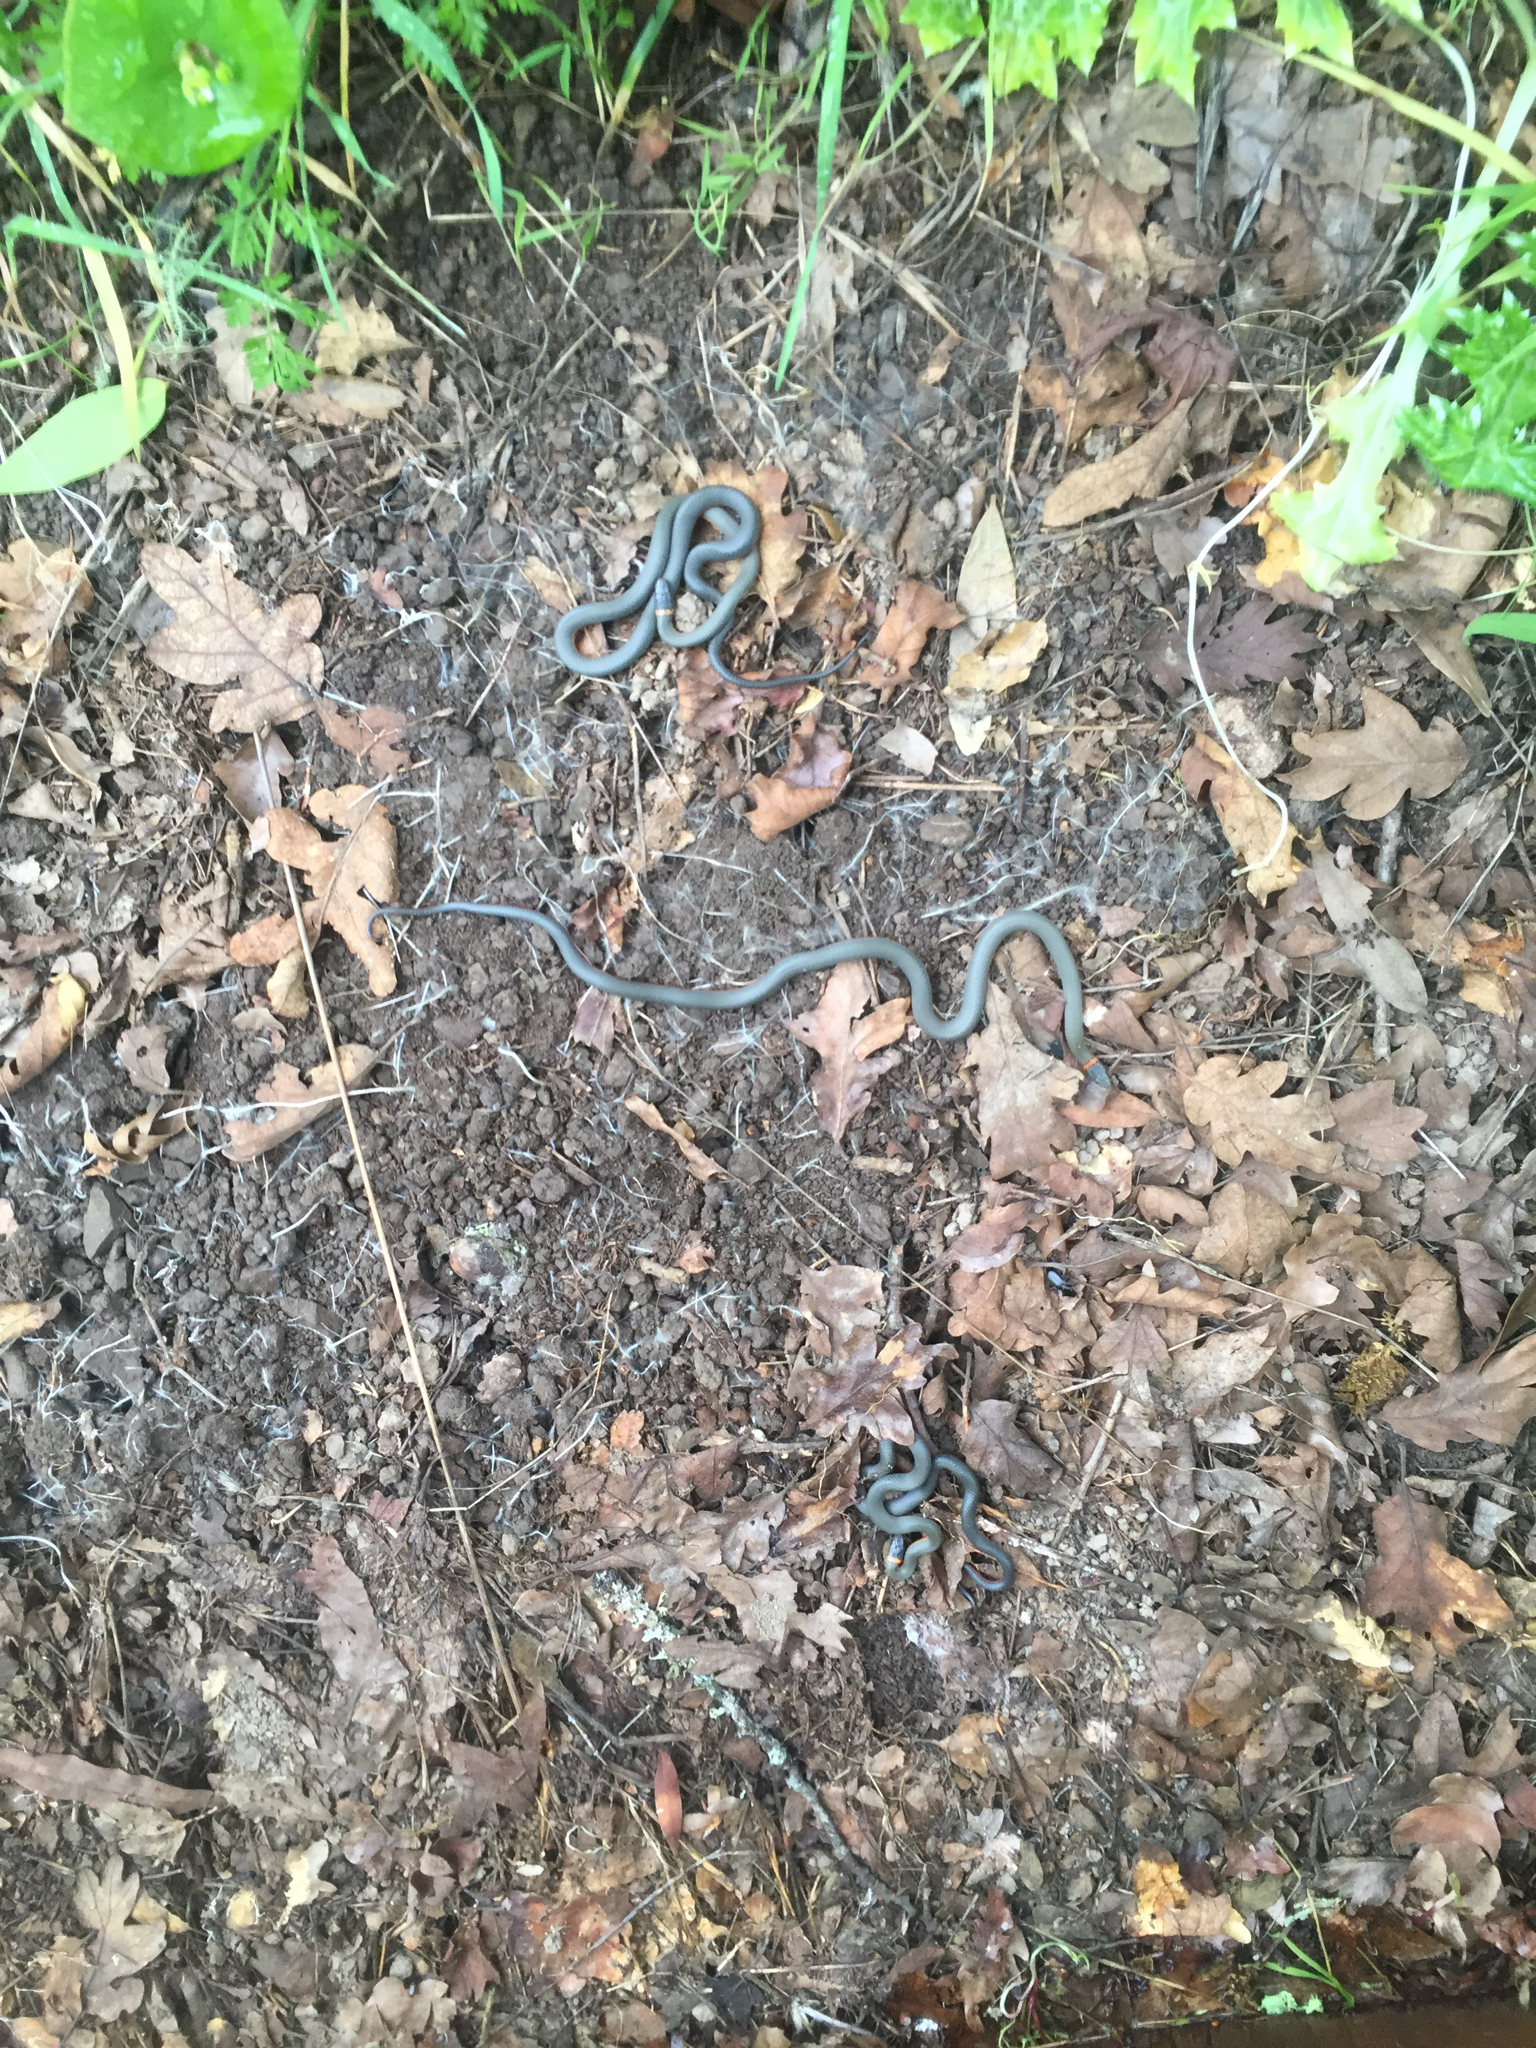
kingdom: Animalia
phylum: Chordata
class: Squamata
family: Colubridae
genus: Diadophis
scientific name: Diadophis punctatus
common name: Ringneck snake
